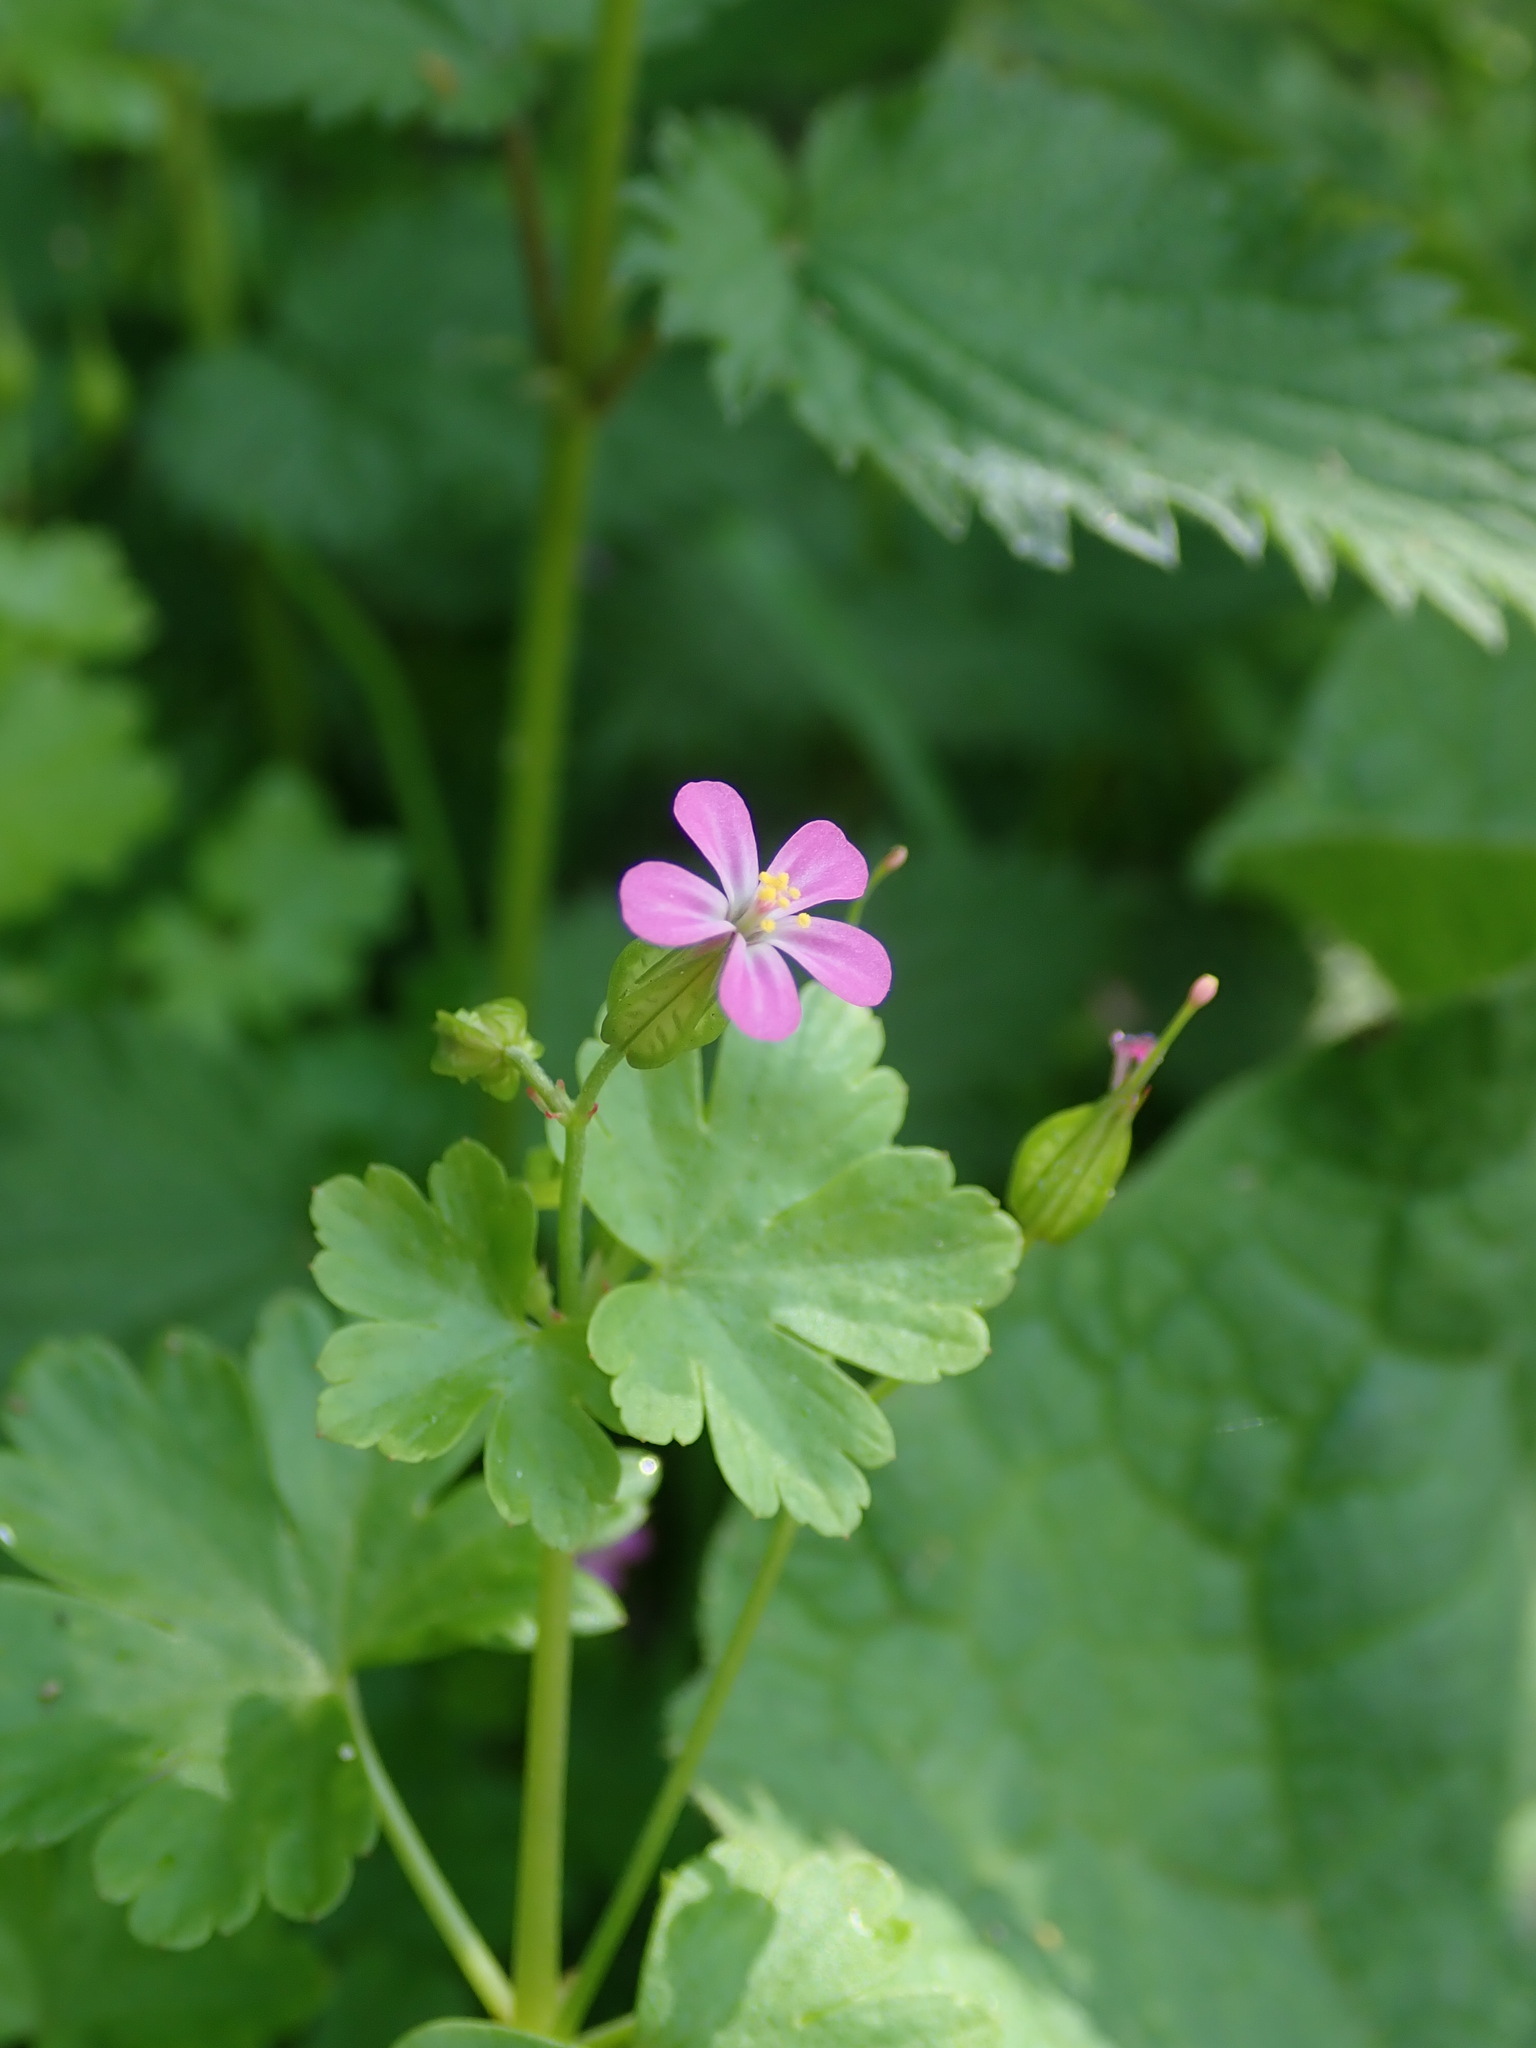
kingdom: Plantae
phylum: Tracheophyta
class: Magnoliopsida
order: Geraniales
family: Geraniaceae
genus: Geranium
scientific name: Geranium lucidum
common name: Shining crane's-bill
